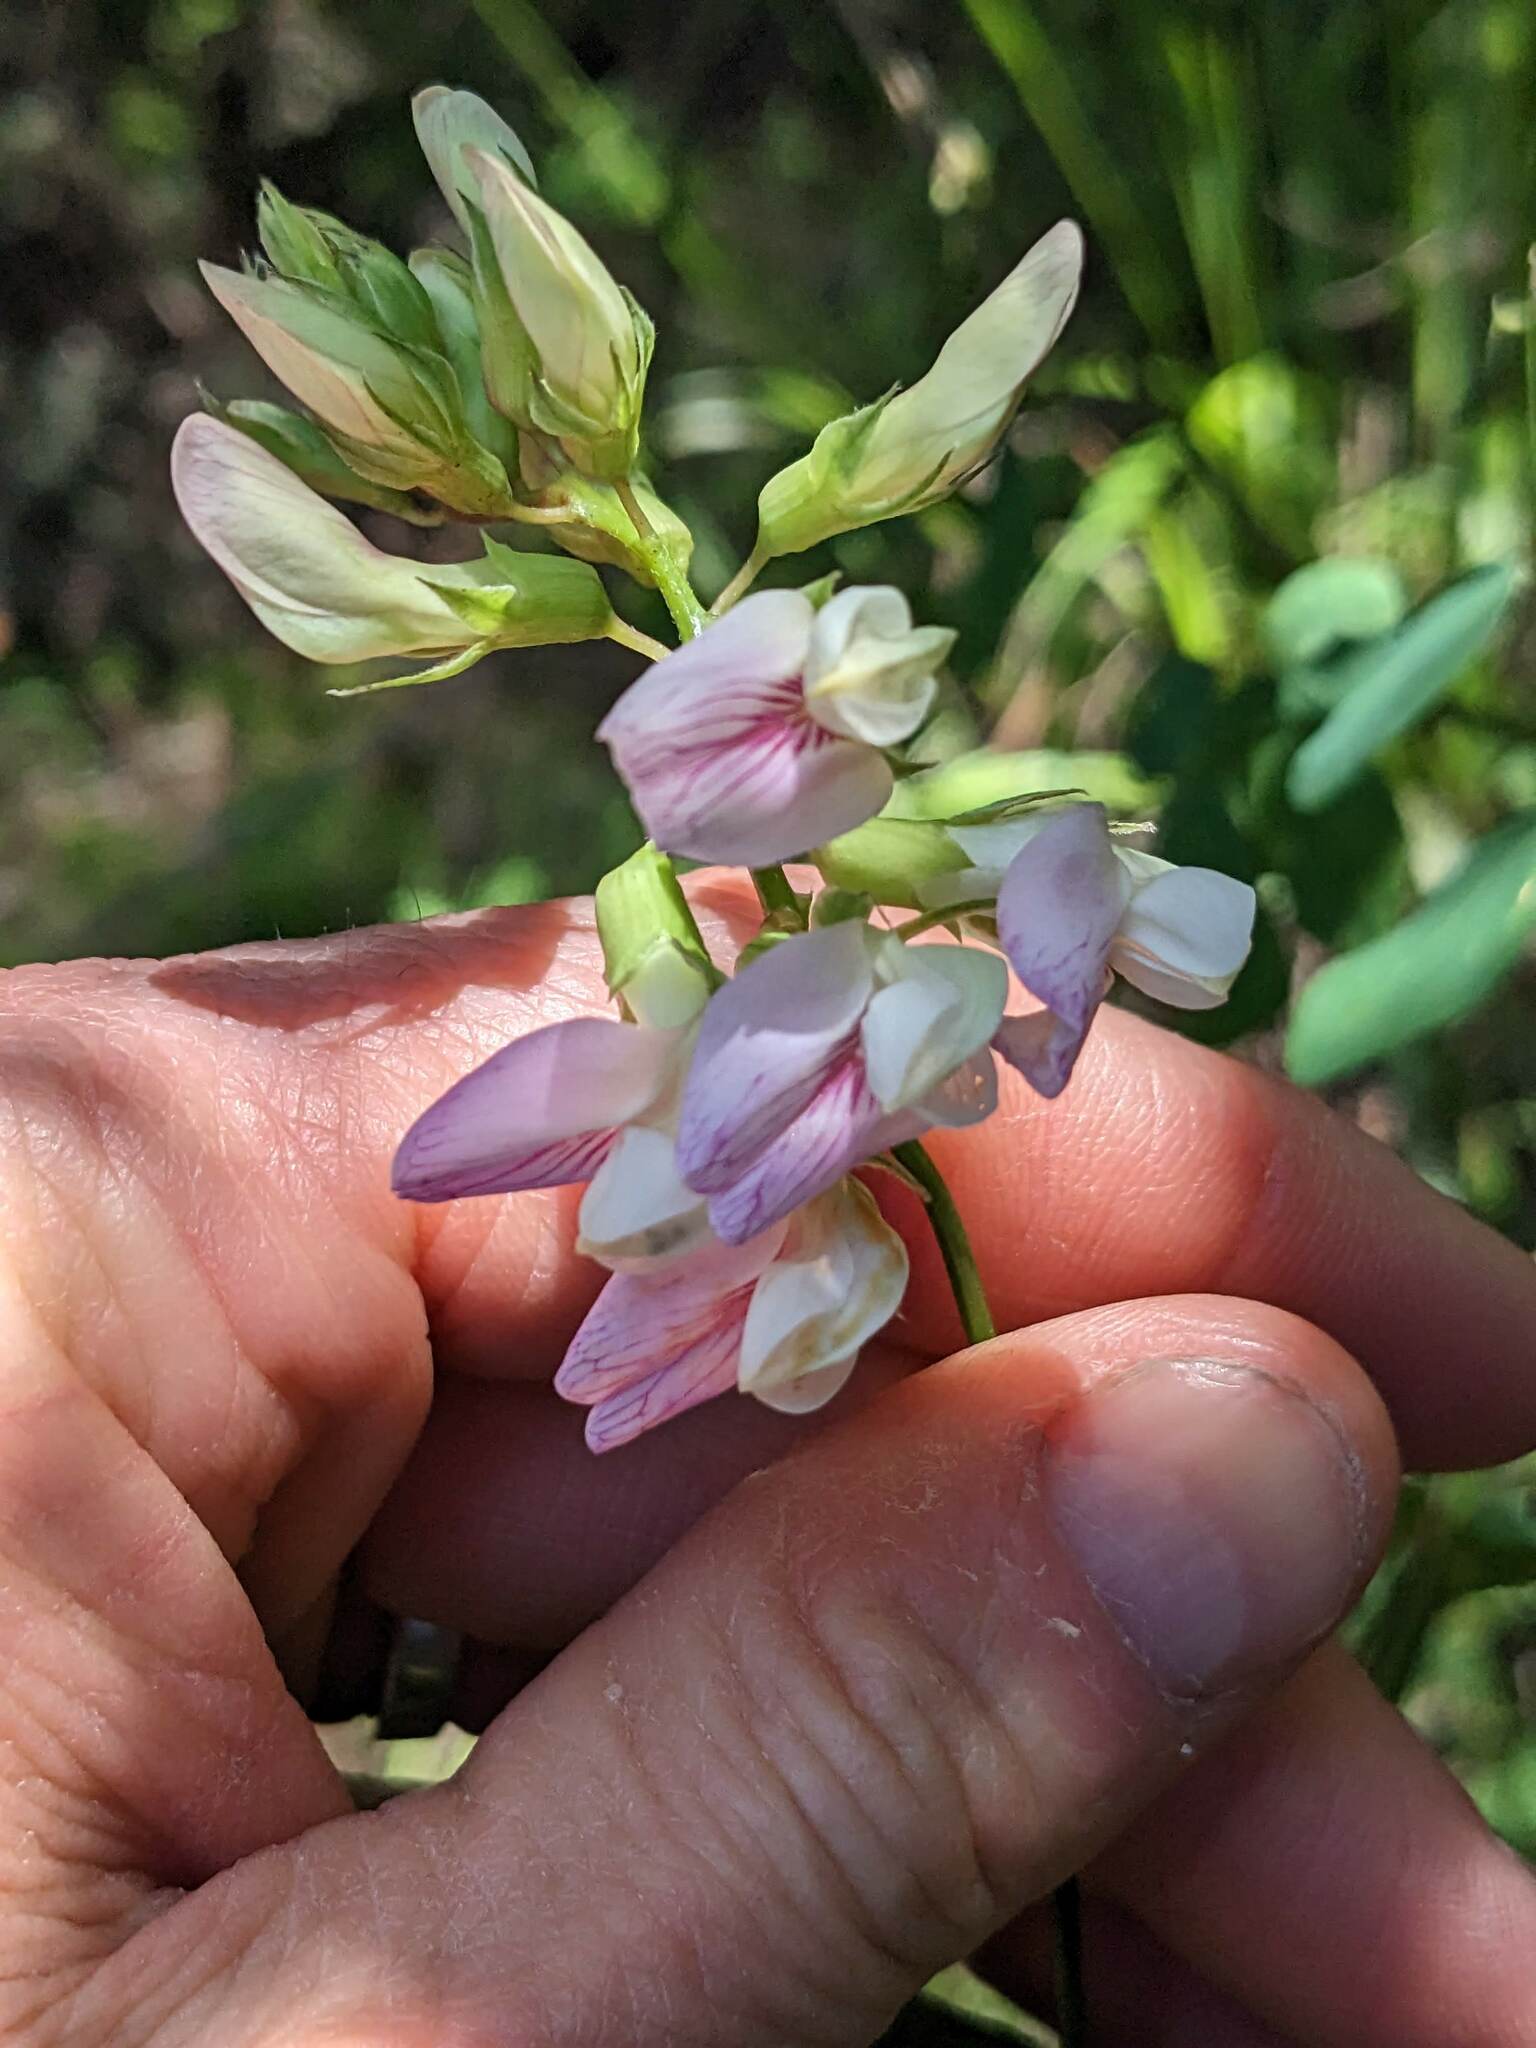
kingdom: Plantae
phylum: Tracheophyta
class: Magnoliopsida
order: Fabales
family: Fabaceae
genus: Lathyrus
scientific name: Lathyrus vestitus
